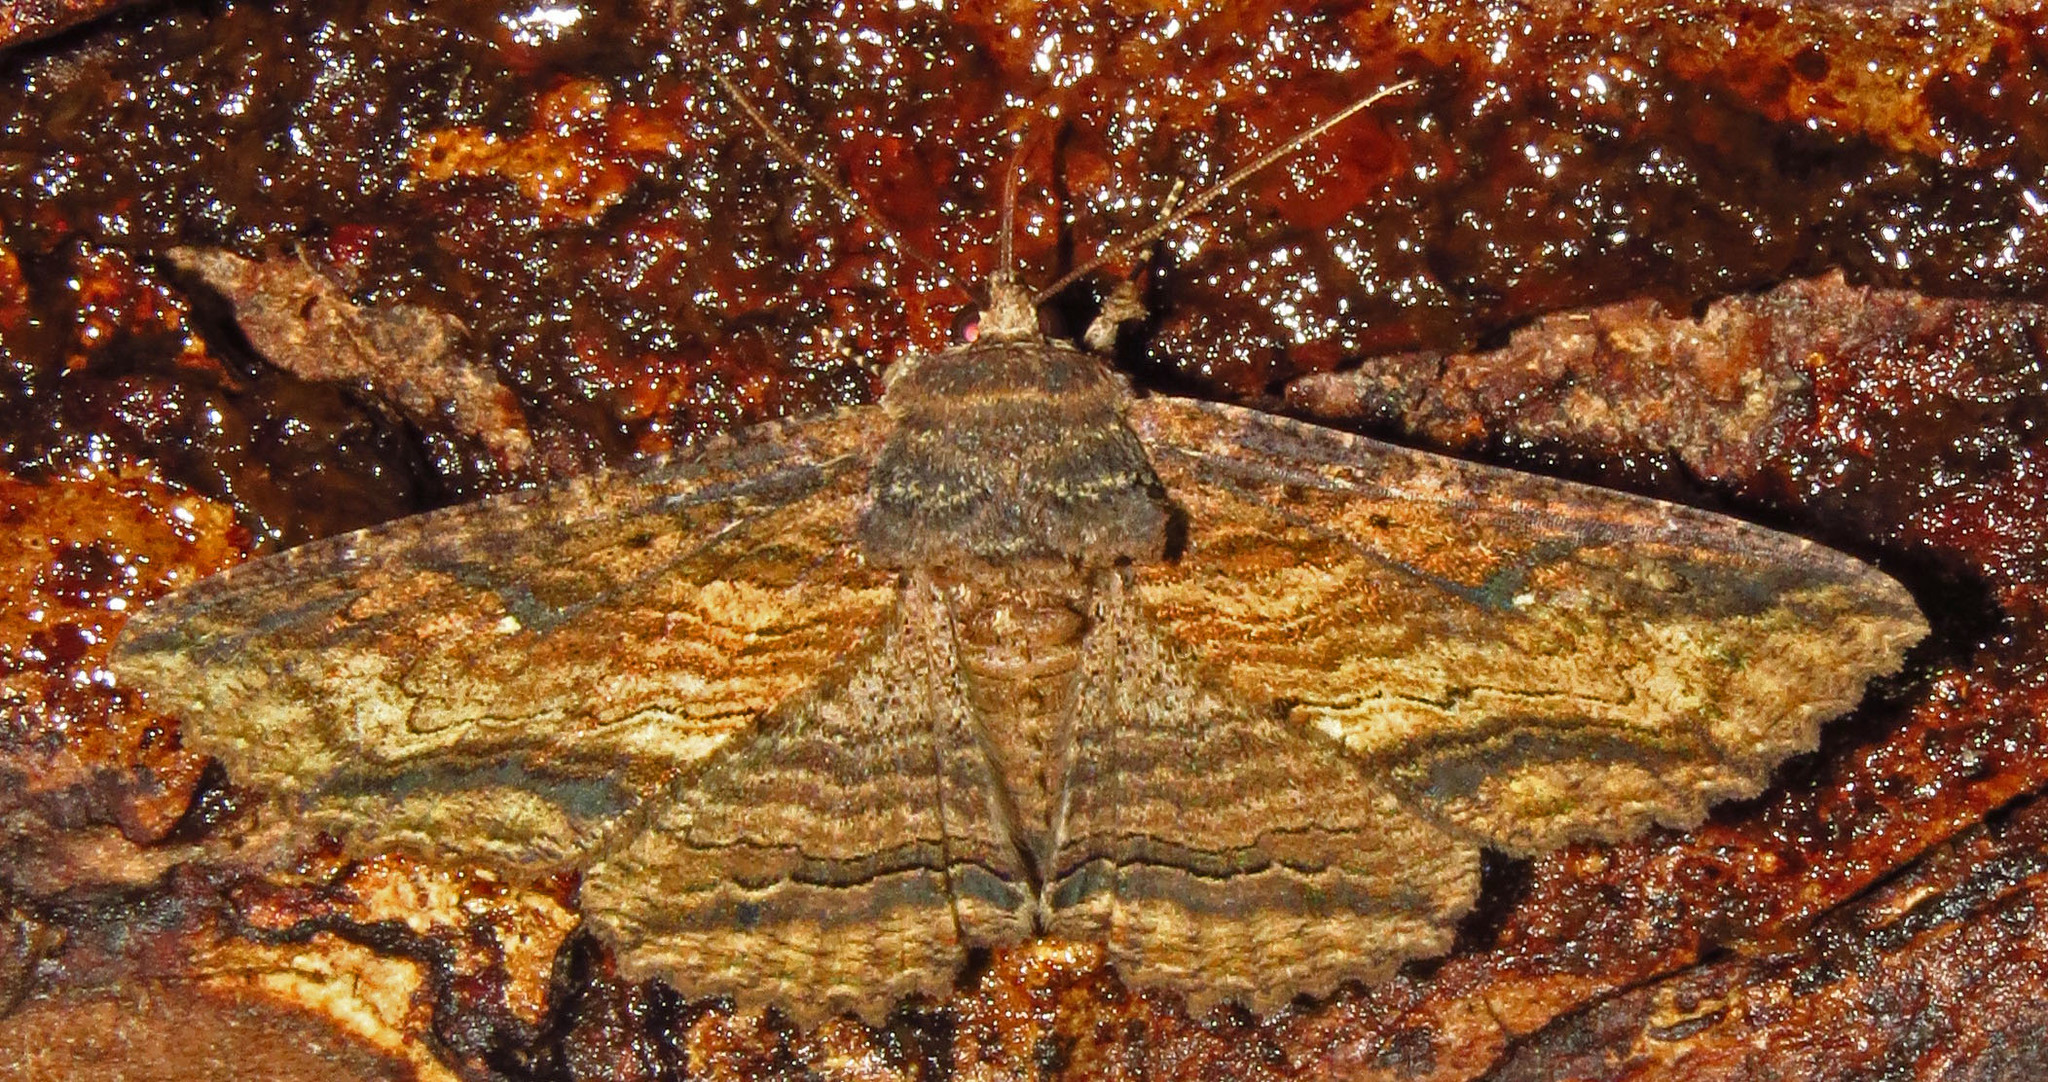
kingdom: Animalia
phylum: Arthropoda
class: Insecta
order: Lepidoptera
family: Erebidae
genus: Zale
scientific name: Zale lunata
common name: Lunate zale moth
